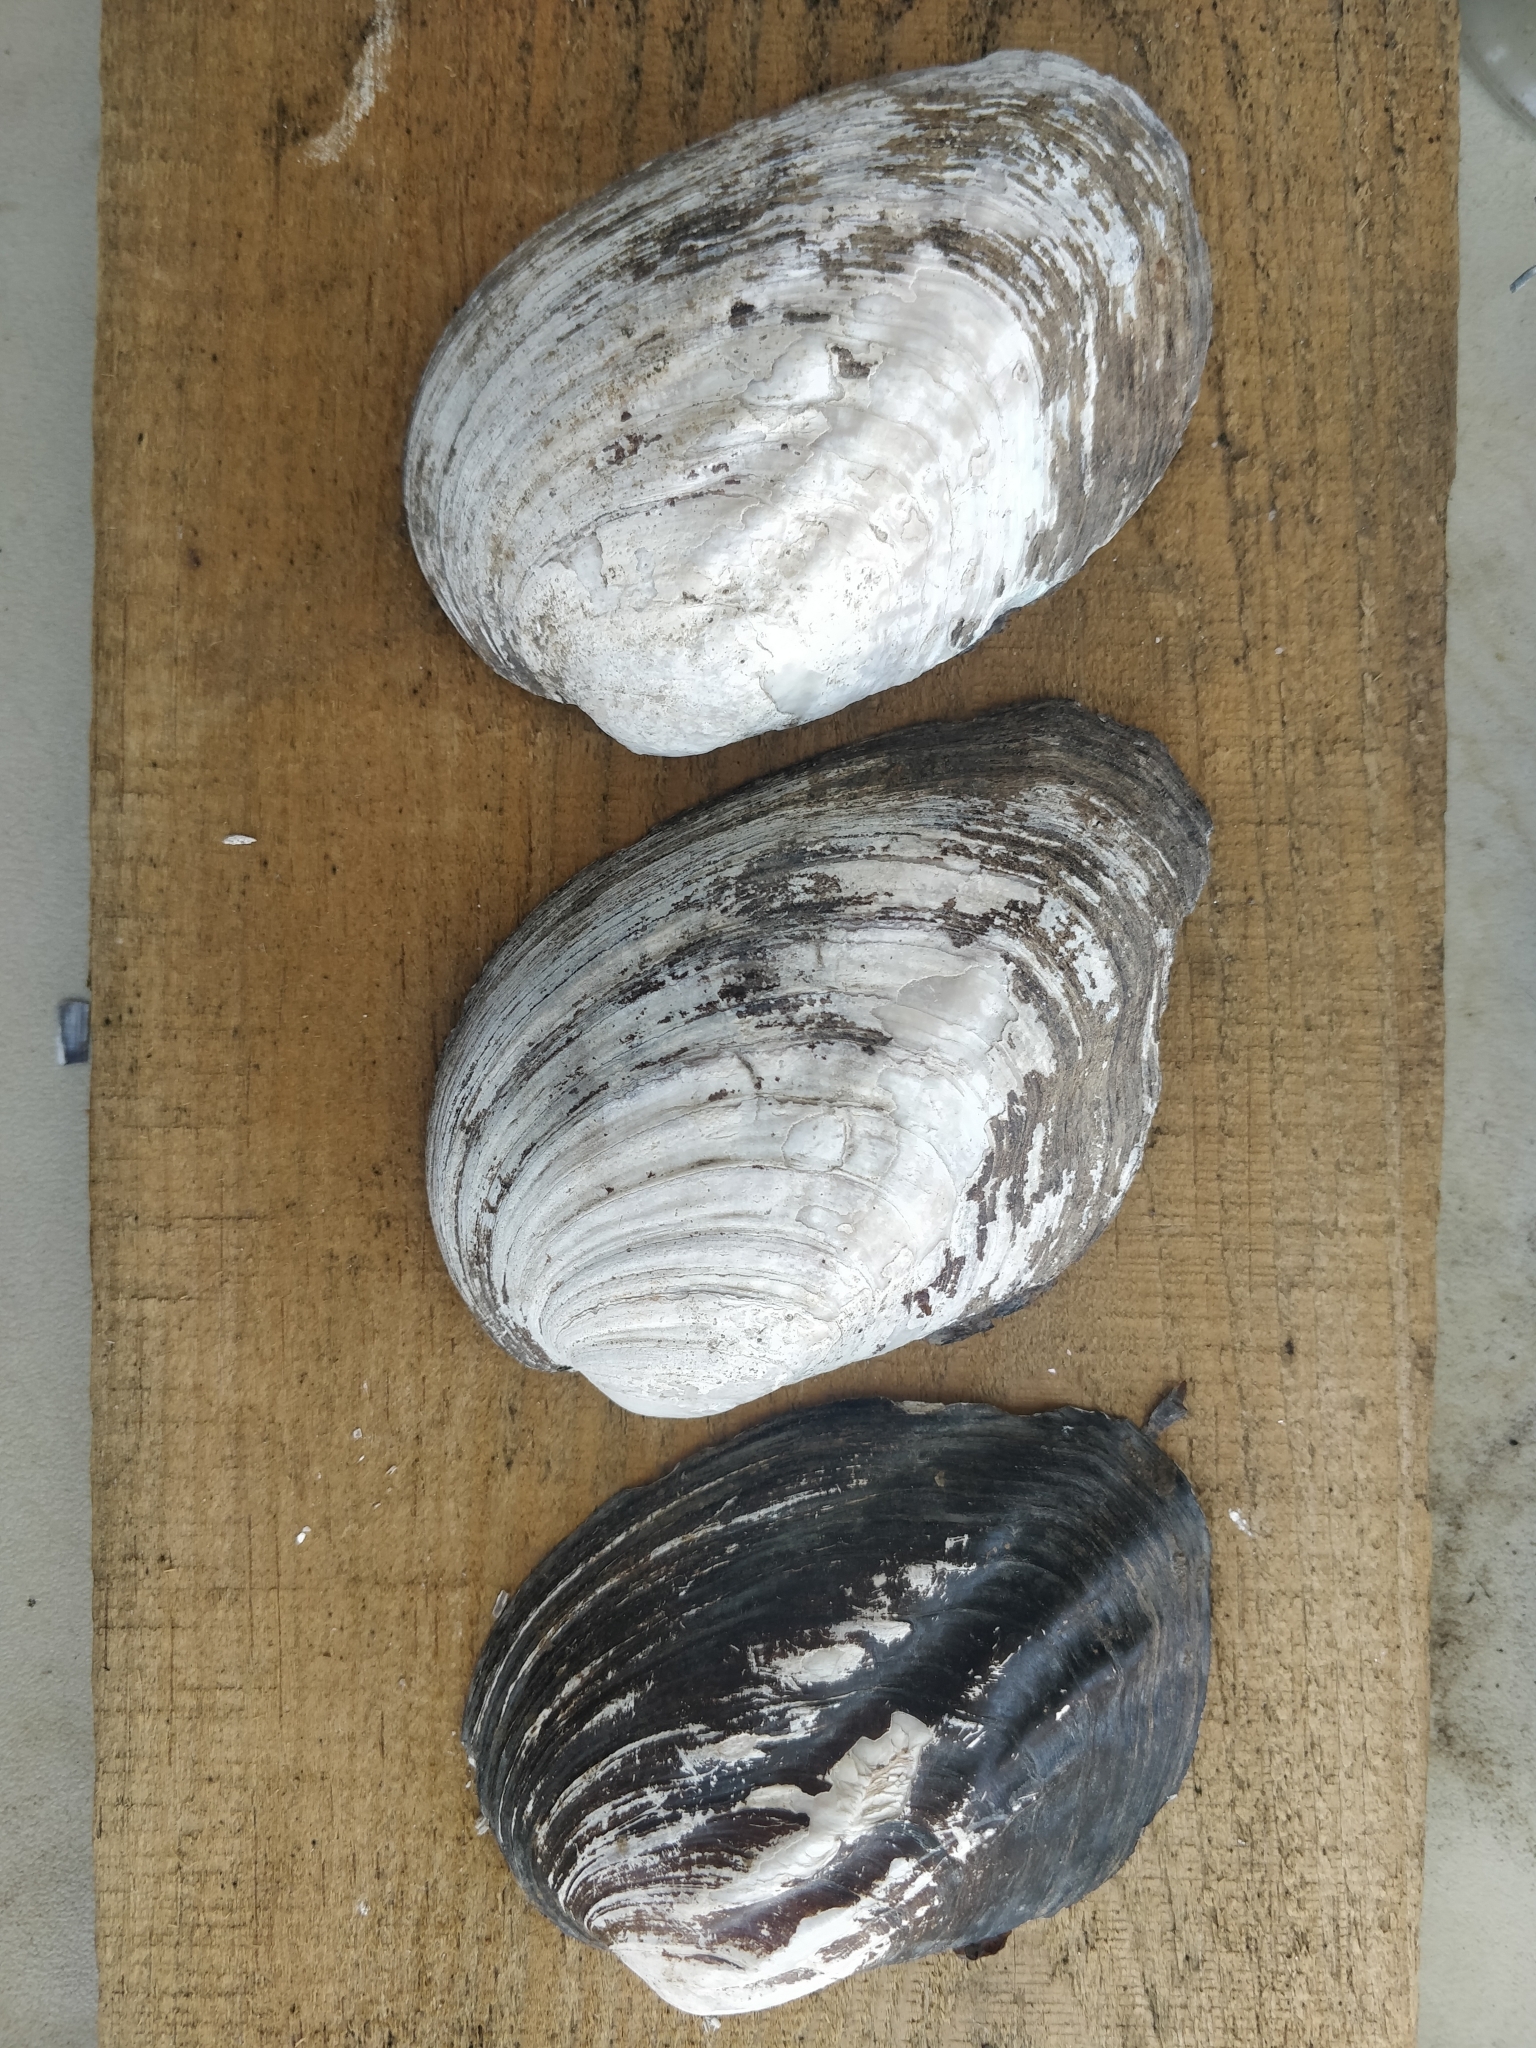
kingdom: Animalia
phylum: Mollusca
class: Bivalvia
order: Unionida
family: Unionidae
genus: Amblema
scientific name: Amblema plicata
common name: Threeridge
